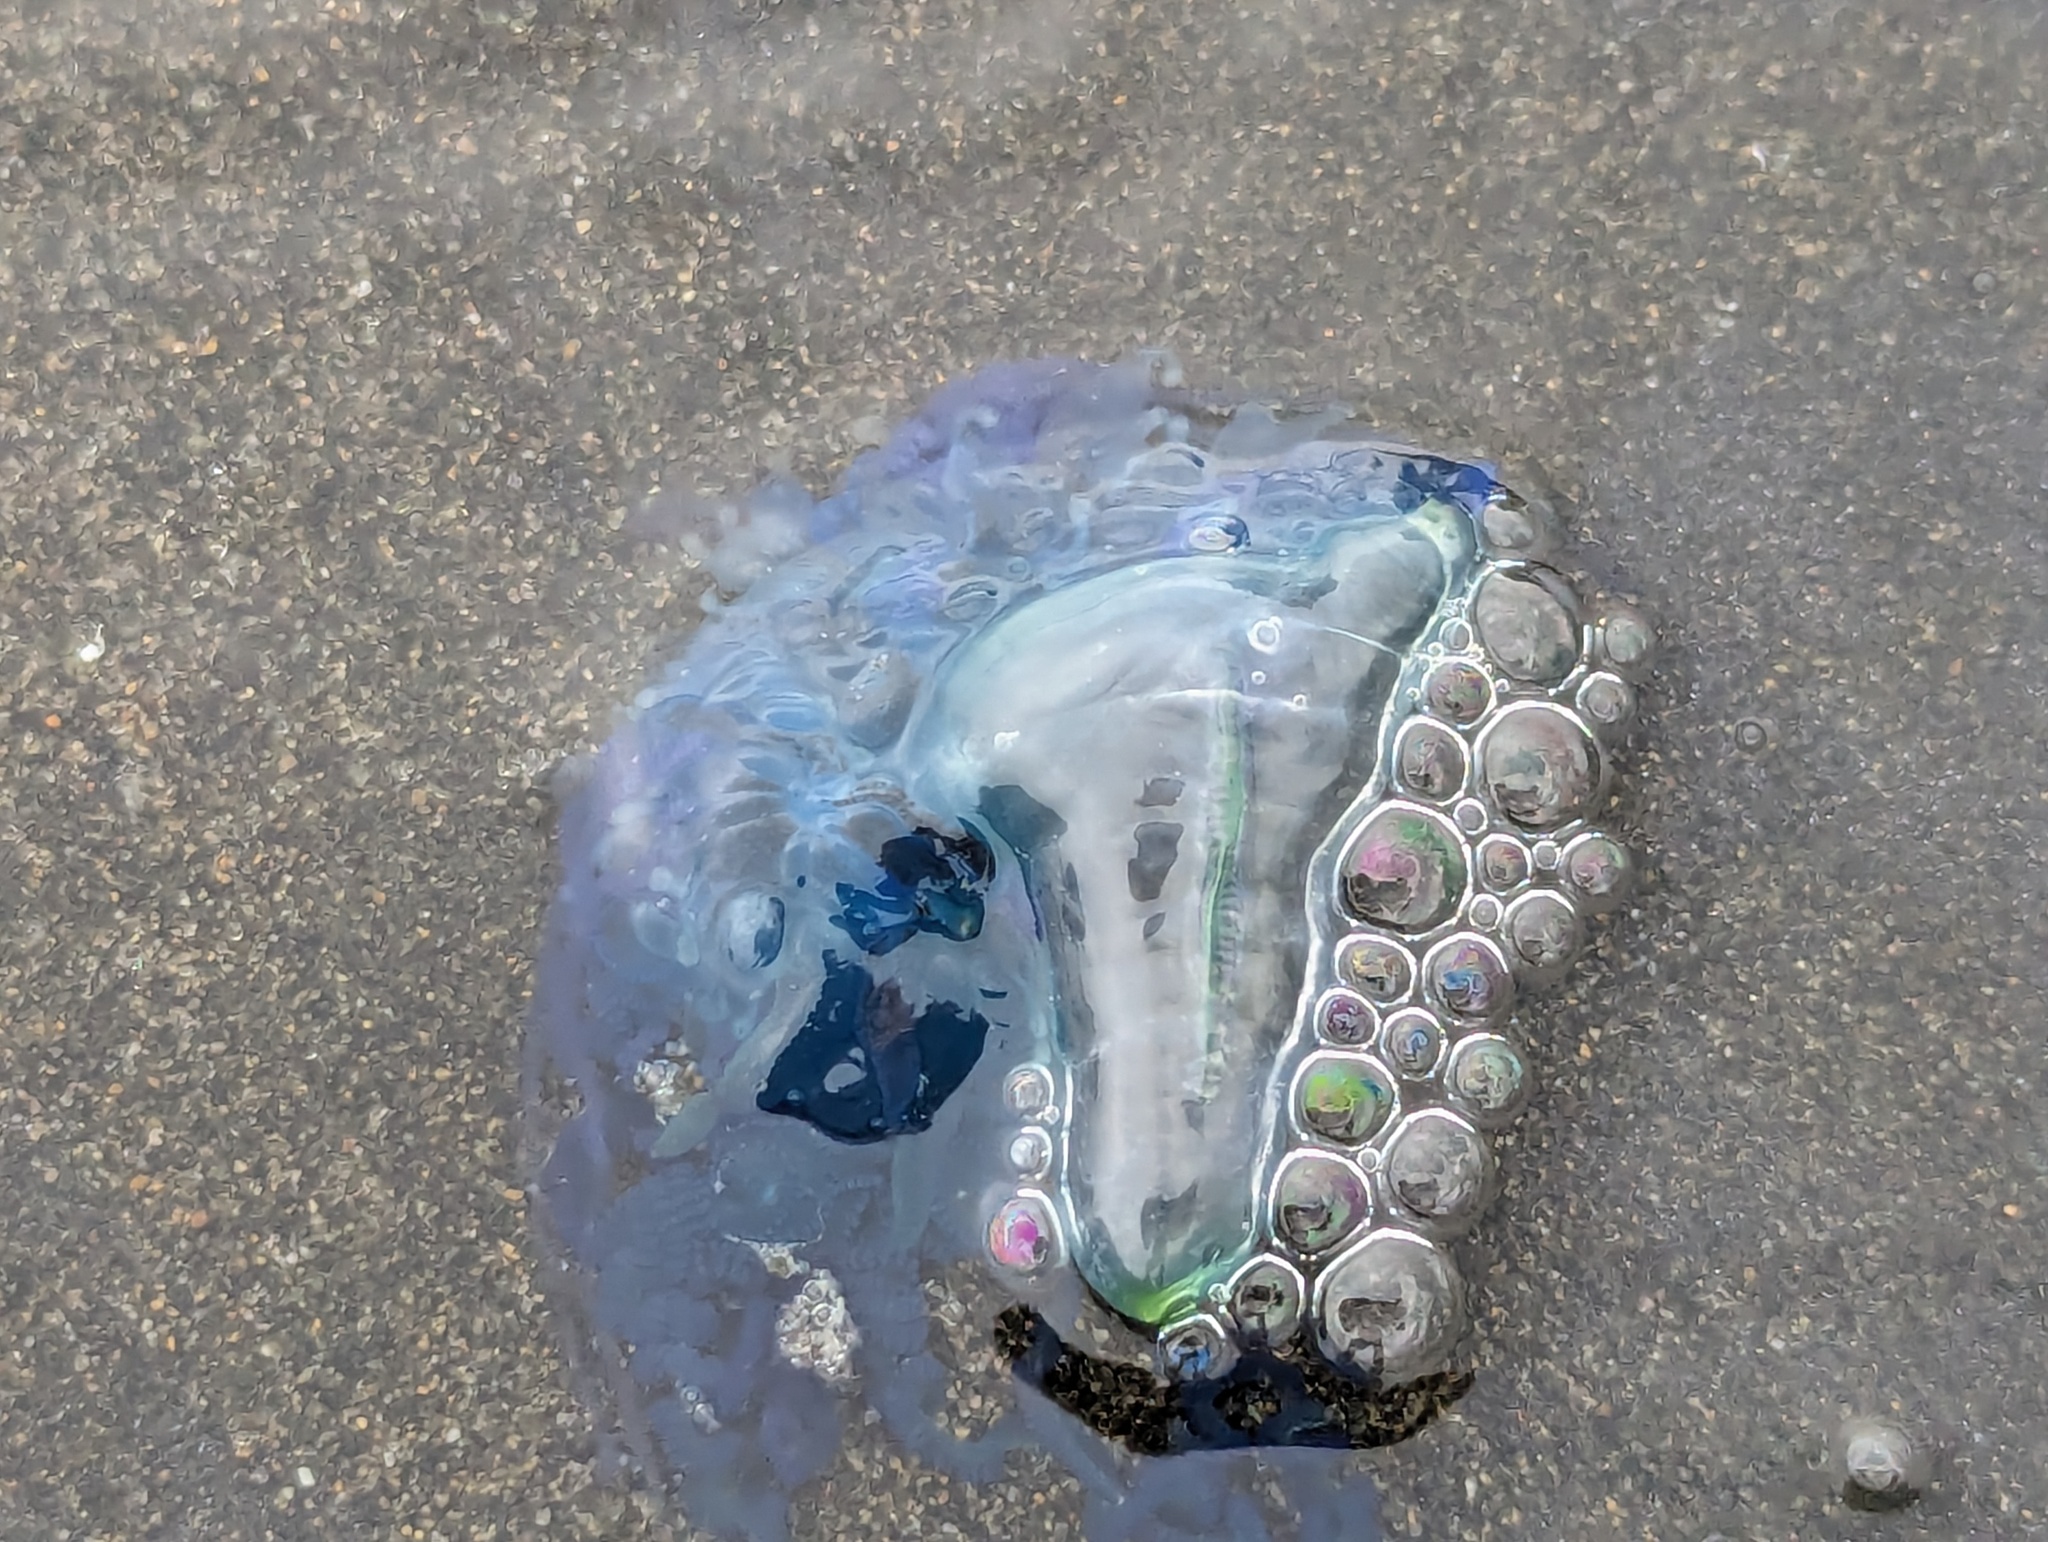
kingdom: Animalia
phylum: Cnidaria
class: Hydrozoa
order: Siphonophorae
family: Physaliidae
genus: Physalia
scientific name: Physalia physalis
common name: Portuguese man-of-war
